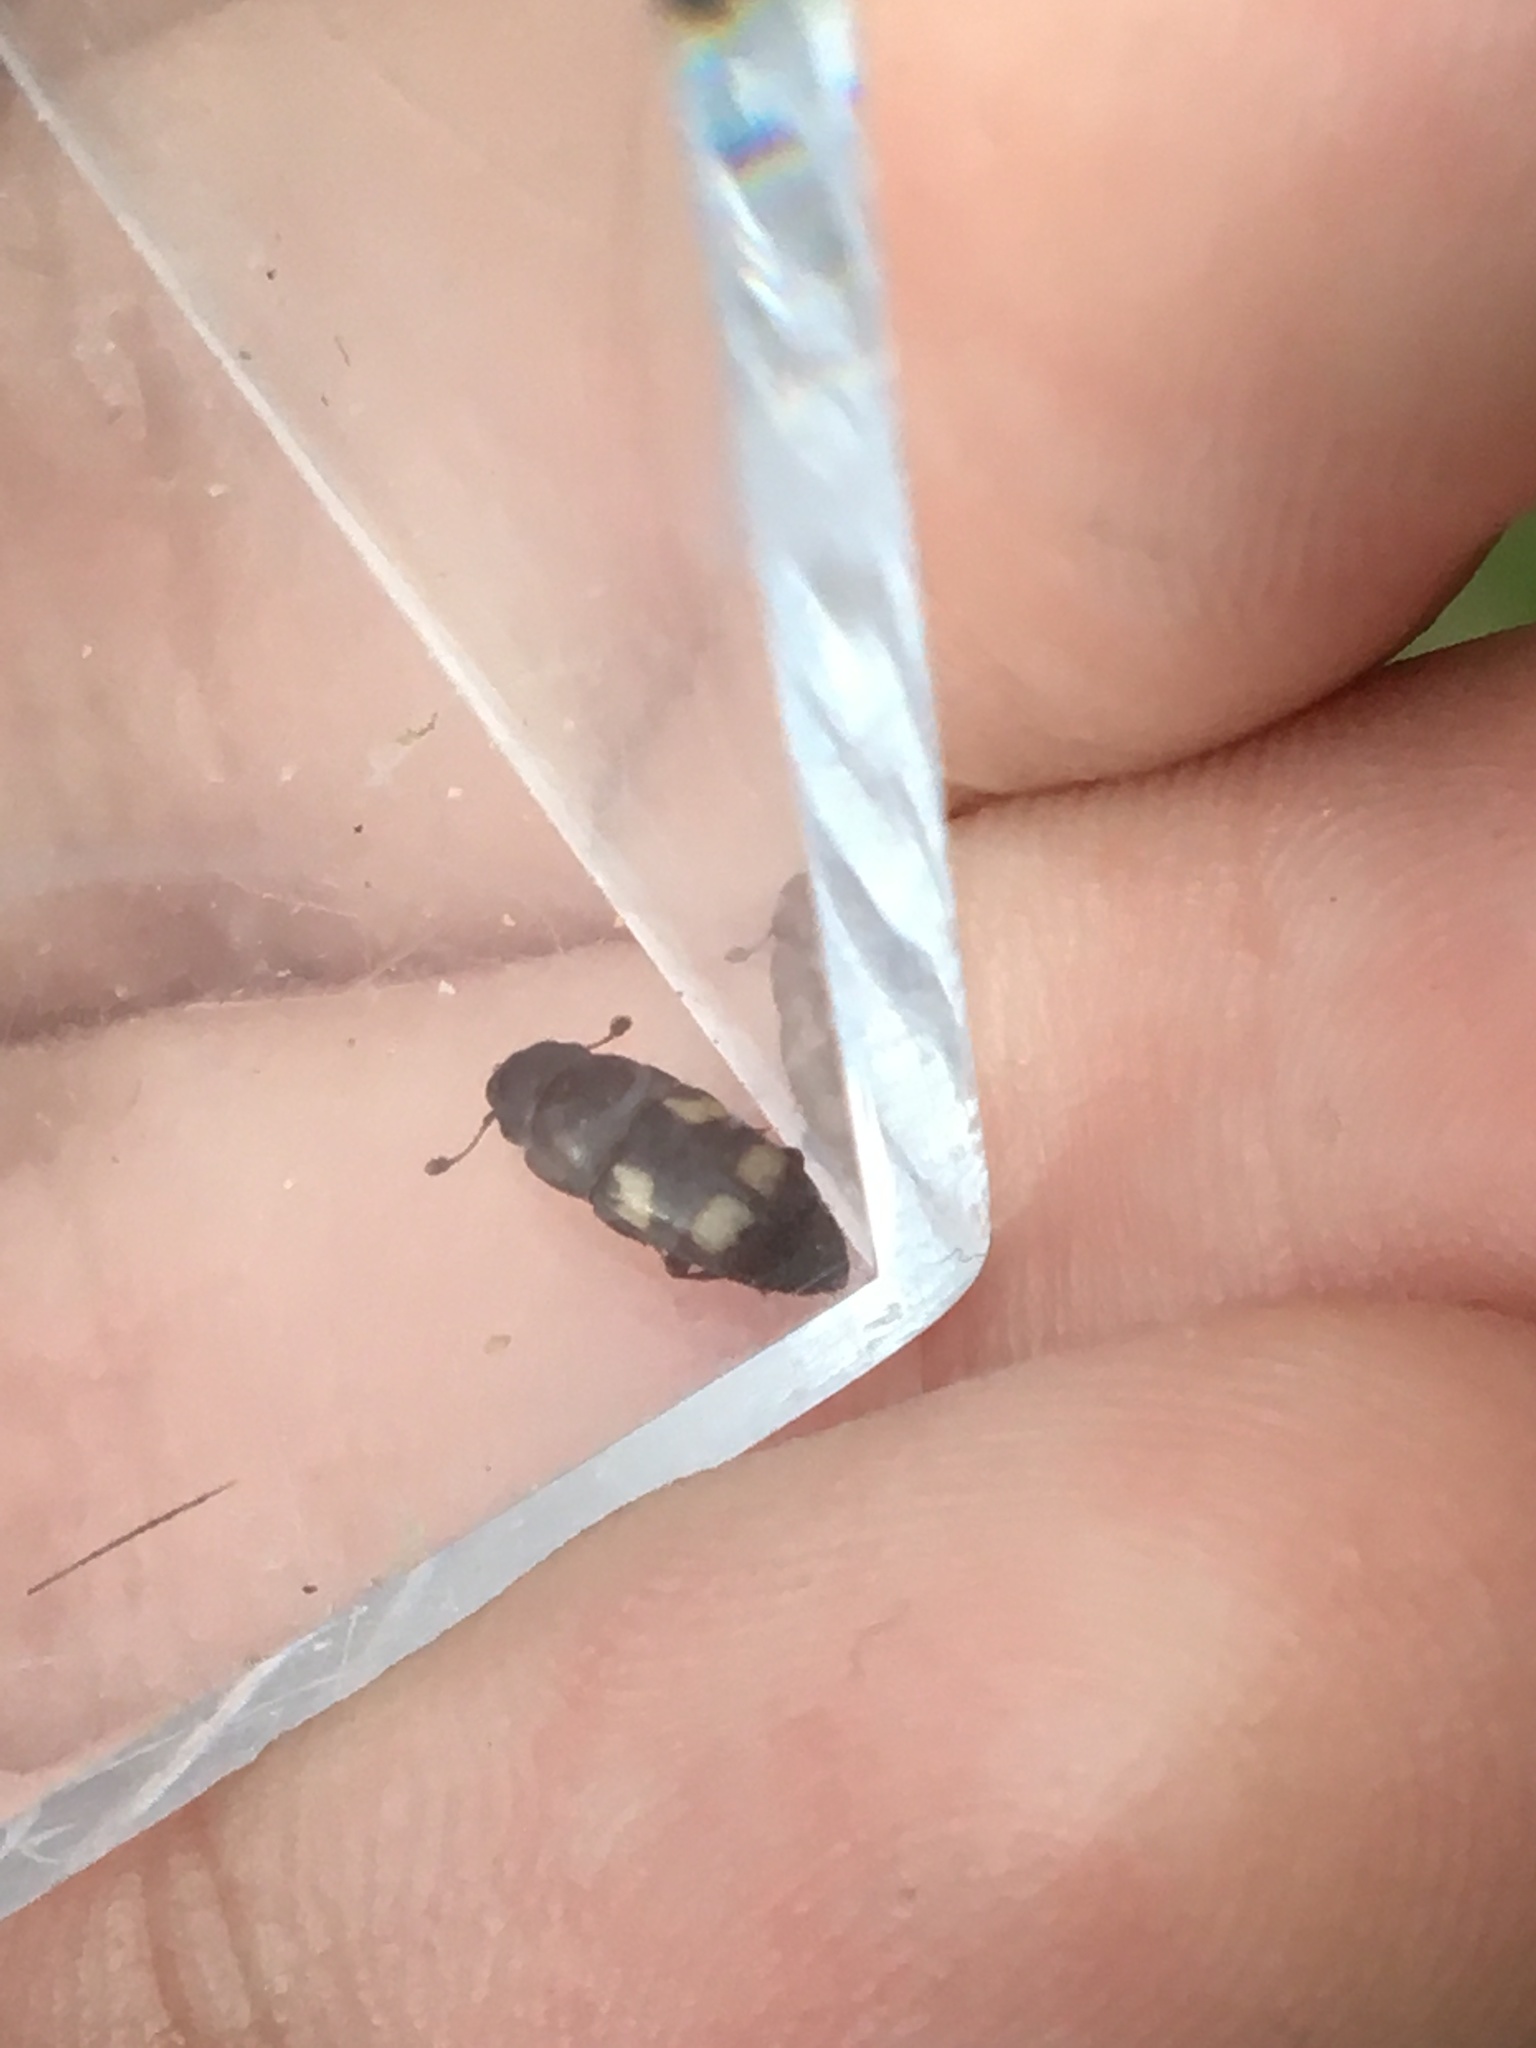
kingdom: Animalia
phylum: Arthropoda
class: Insecta
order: Coleoptera
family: Nitidulidae
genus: Glischrochilus
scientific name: Glischrochilus quadrisignatus
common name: Picnic beetle
